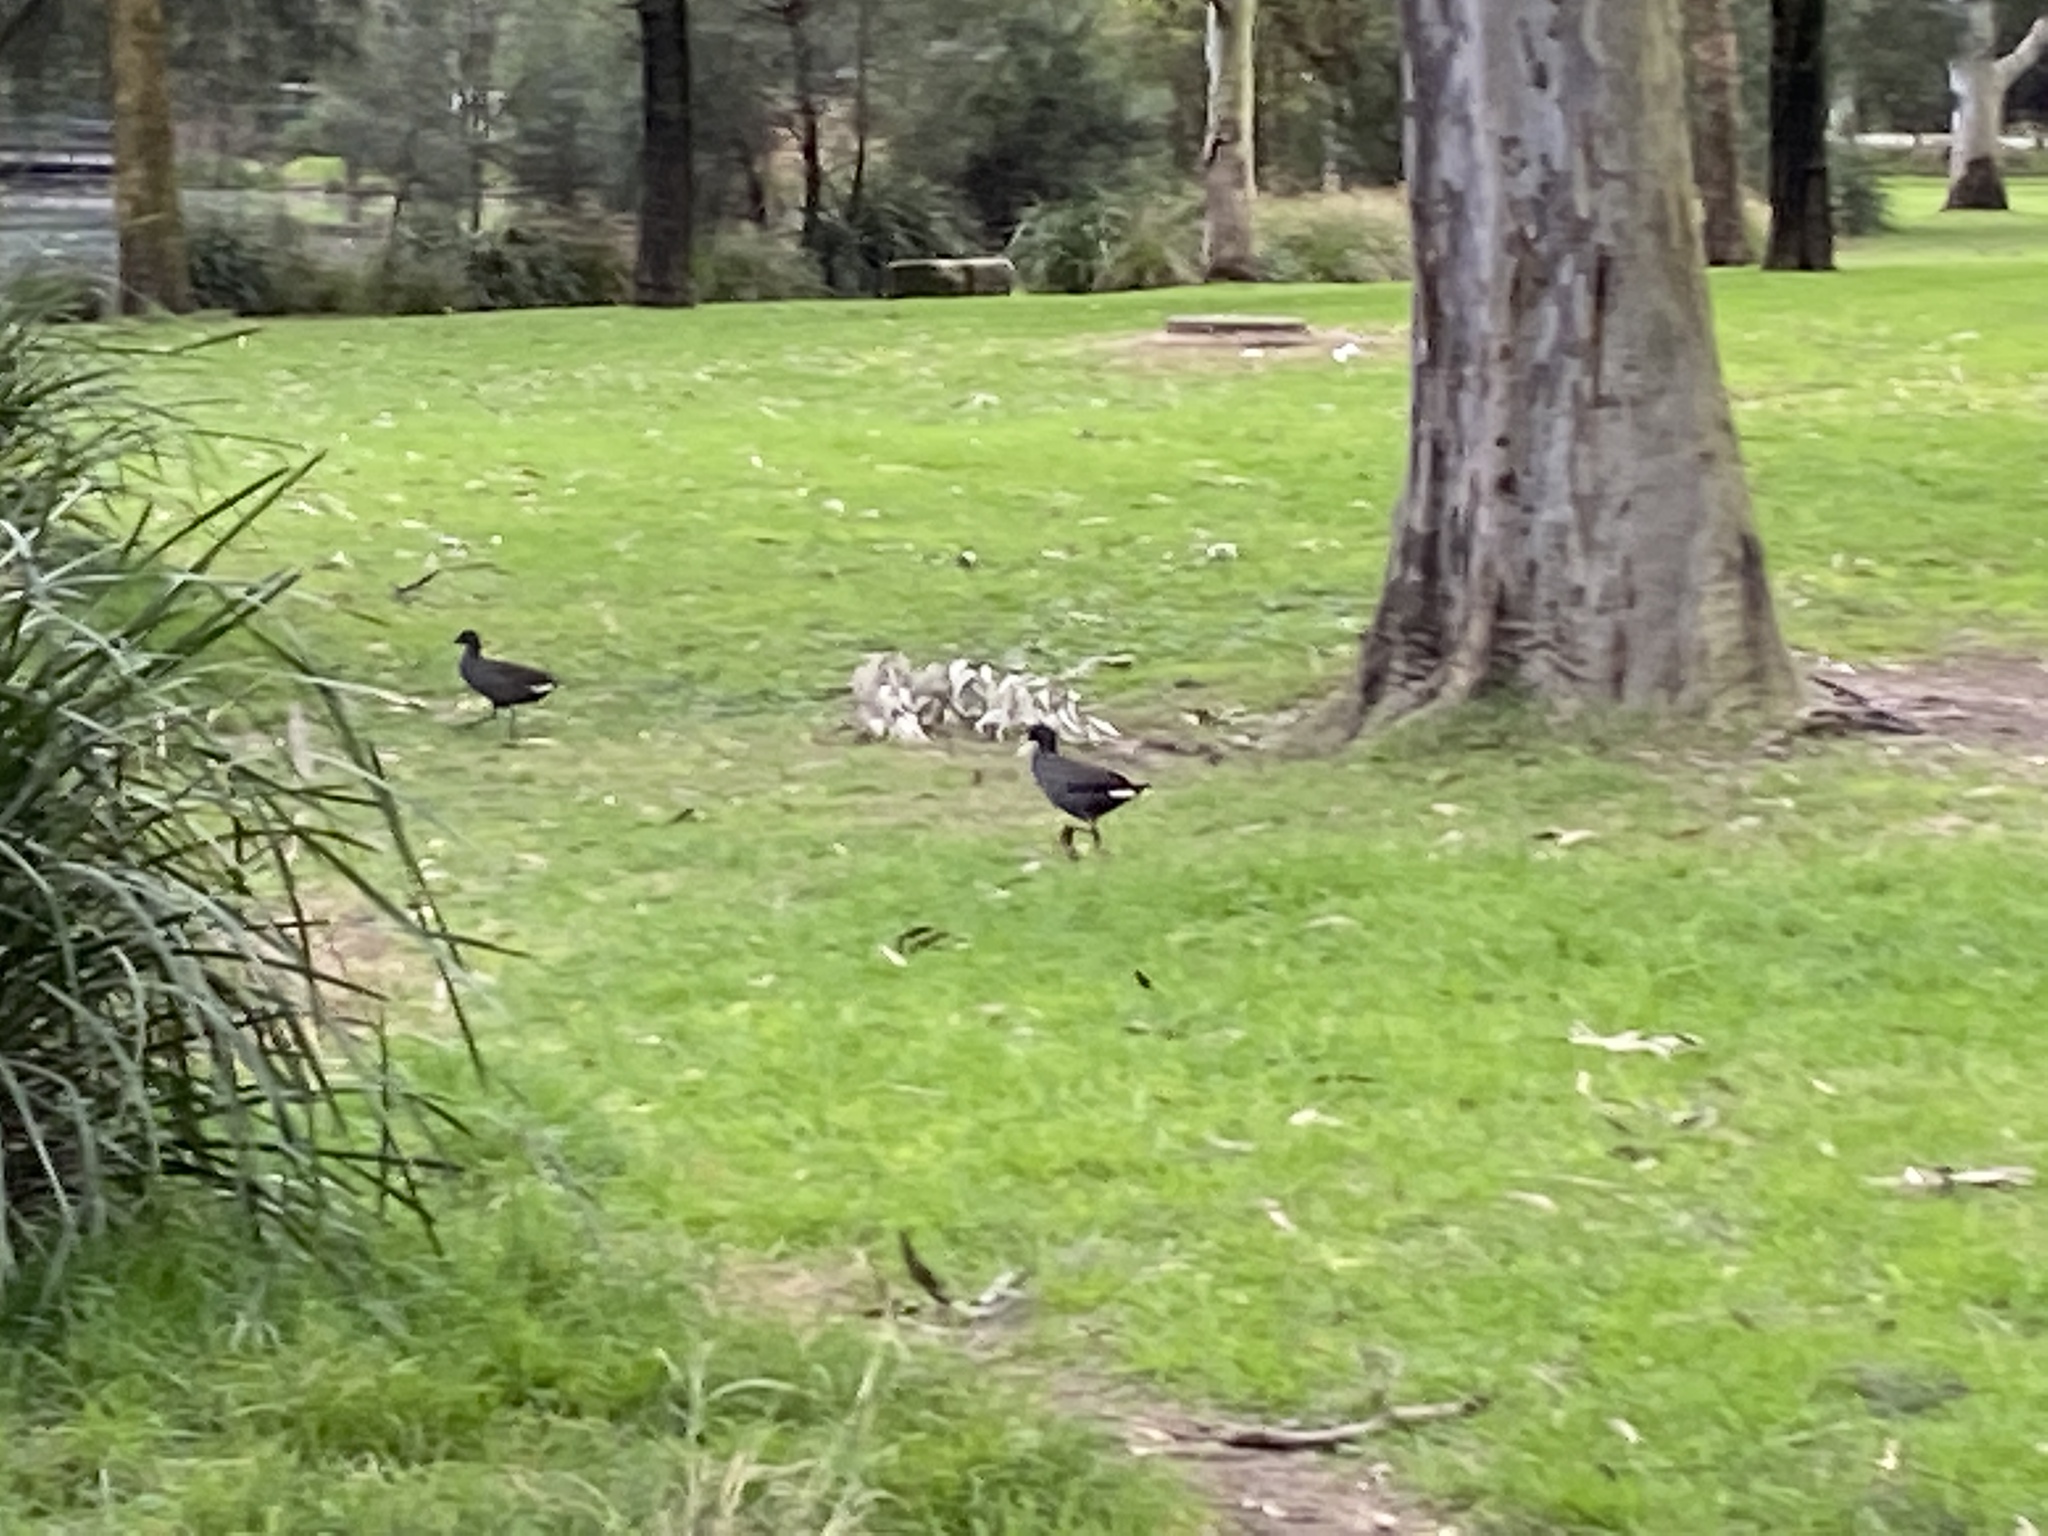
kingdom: Animalia
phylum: Chordata
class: Aves
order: Gruiformes
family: Rallidae
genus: Gallinula
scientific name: Gallinula tenebrosa
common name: Dusky moorhen
